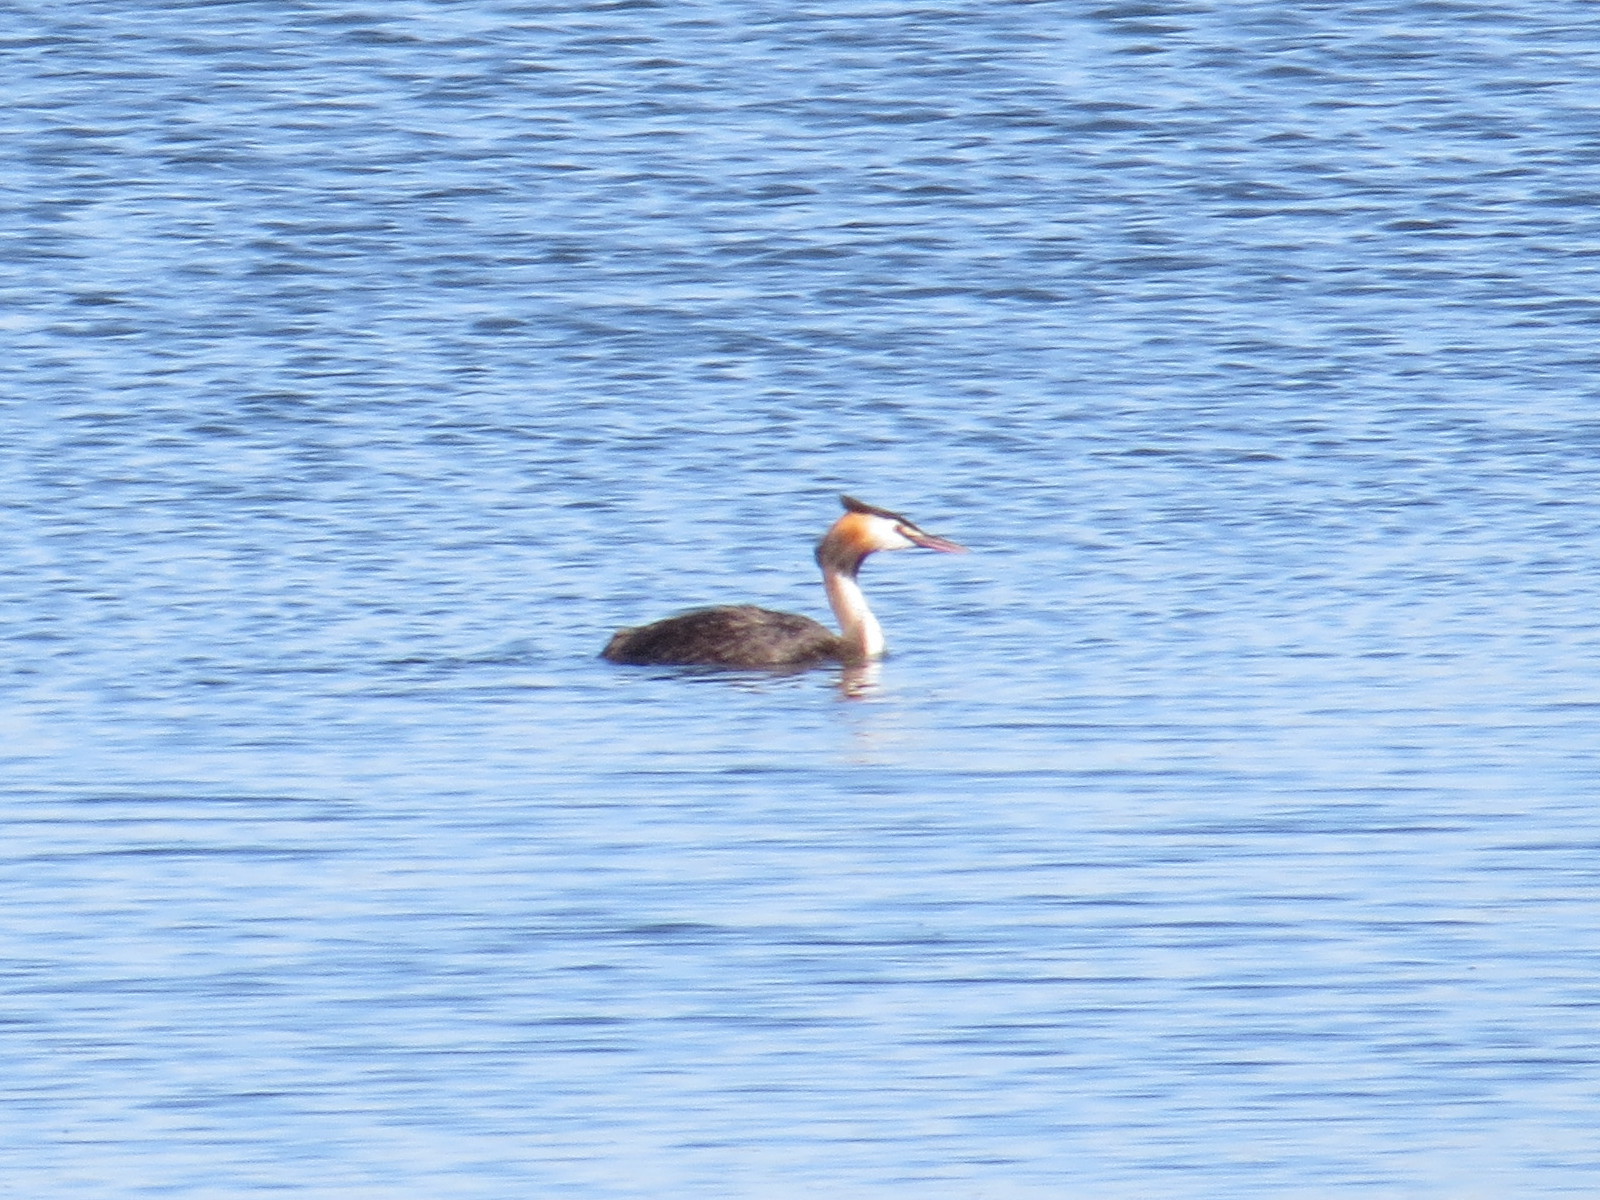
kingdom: Animalia
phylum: Chordata
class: Aves
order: Podicipediformes
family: Podicipedidae
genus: Podiceps
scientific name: Podiceps cristatus
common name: Great crested grebe
